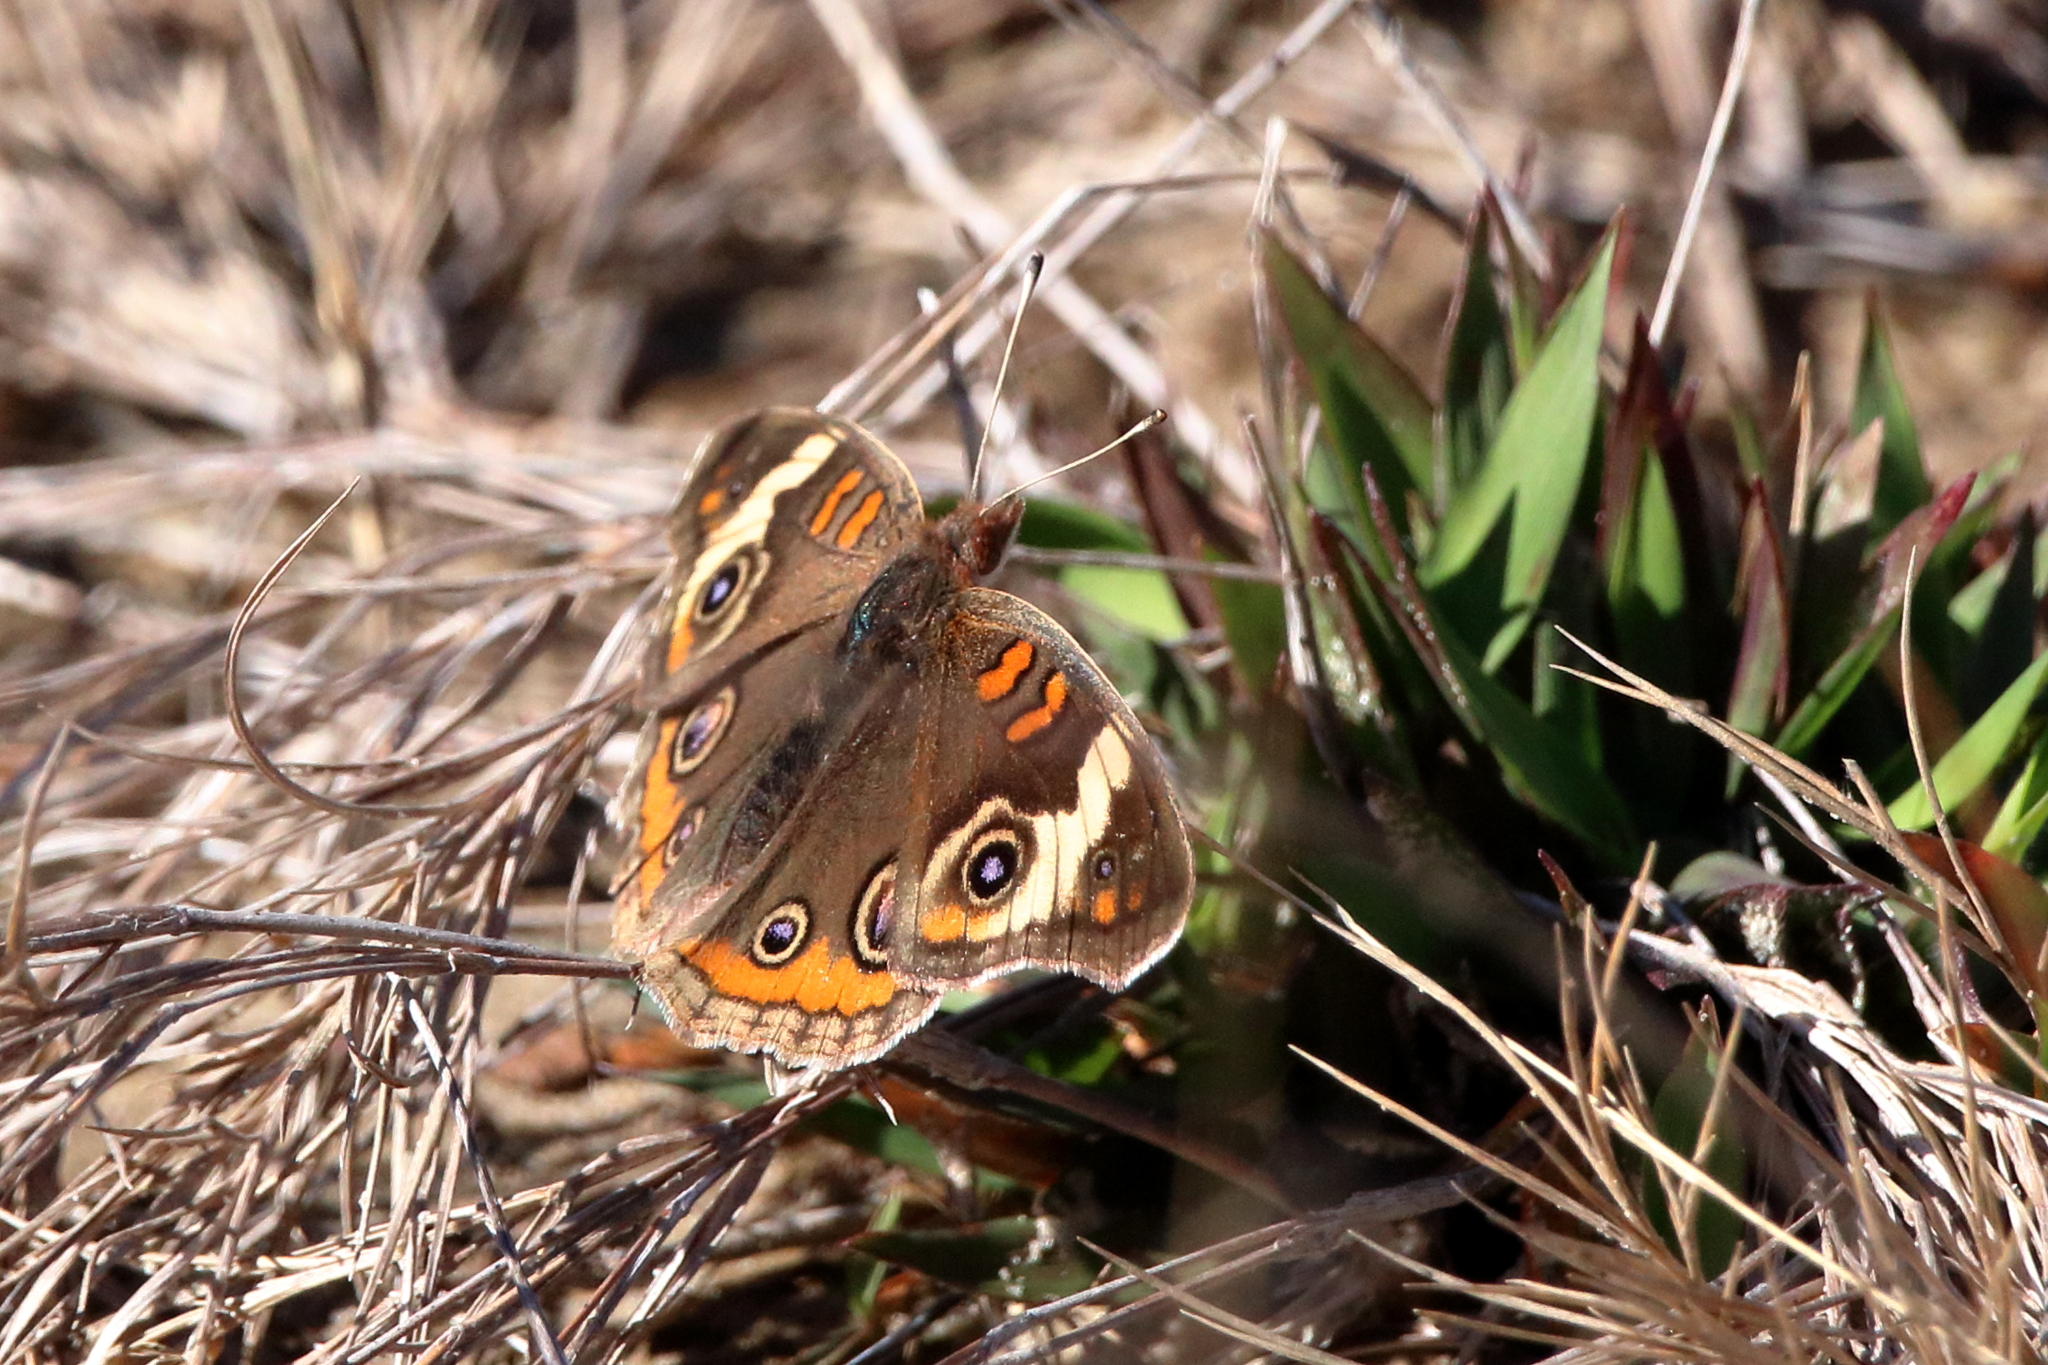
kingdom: Animalia
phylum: Arthropoda
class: Insecta
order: Lepidoptera
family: Nymphalidae
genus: Junonia
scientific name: Junonia coenia
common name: Common buckeye
